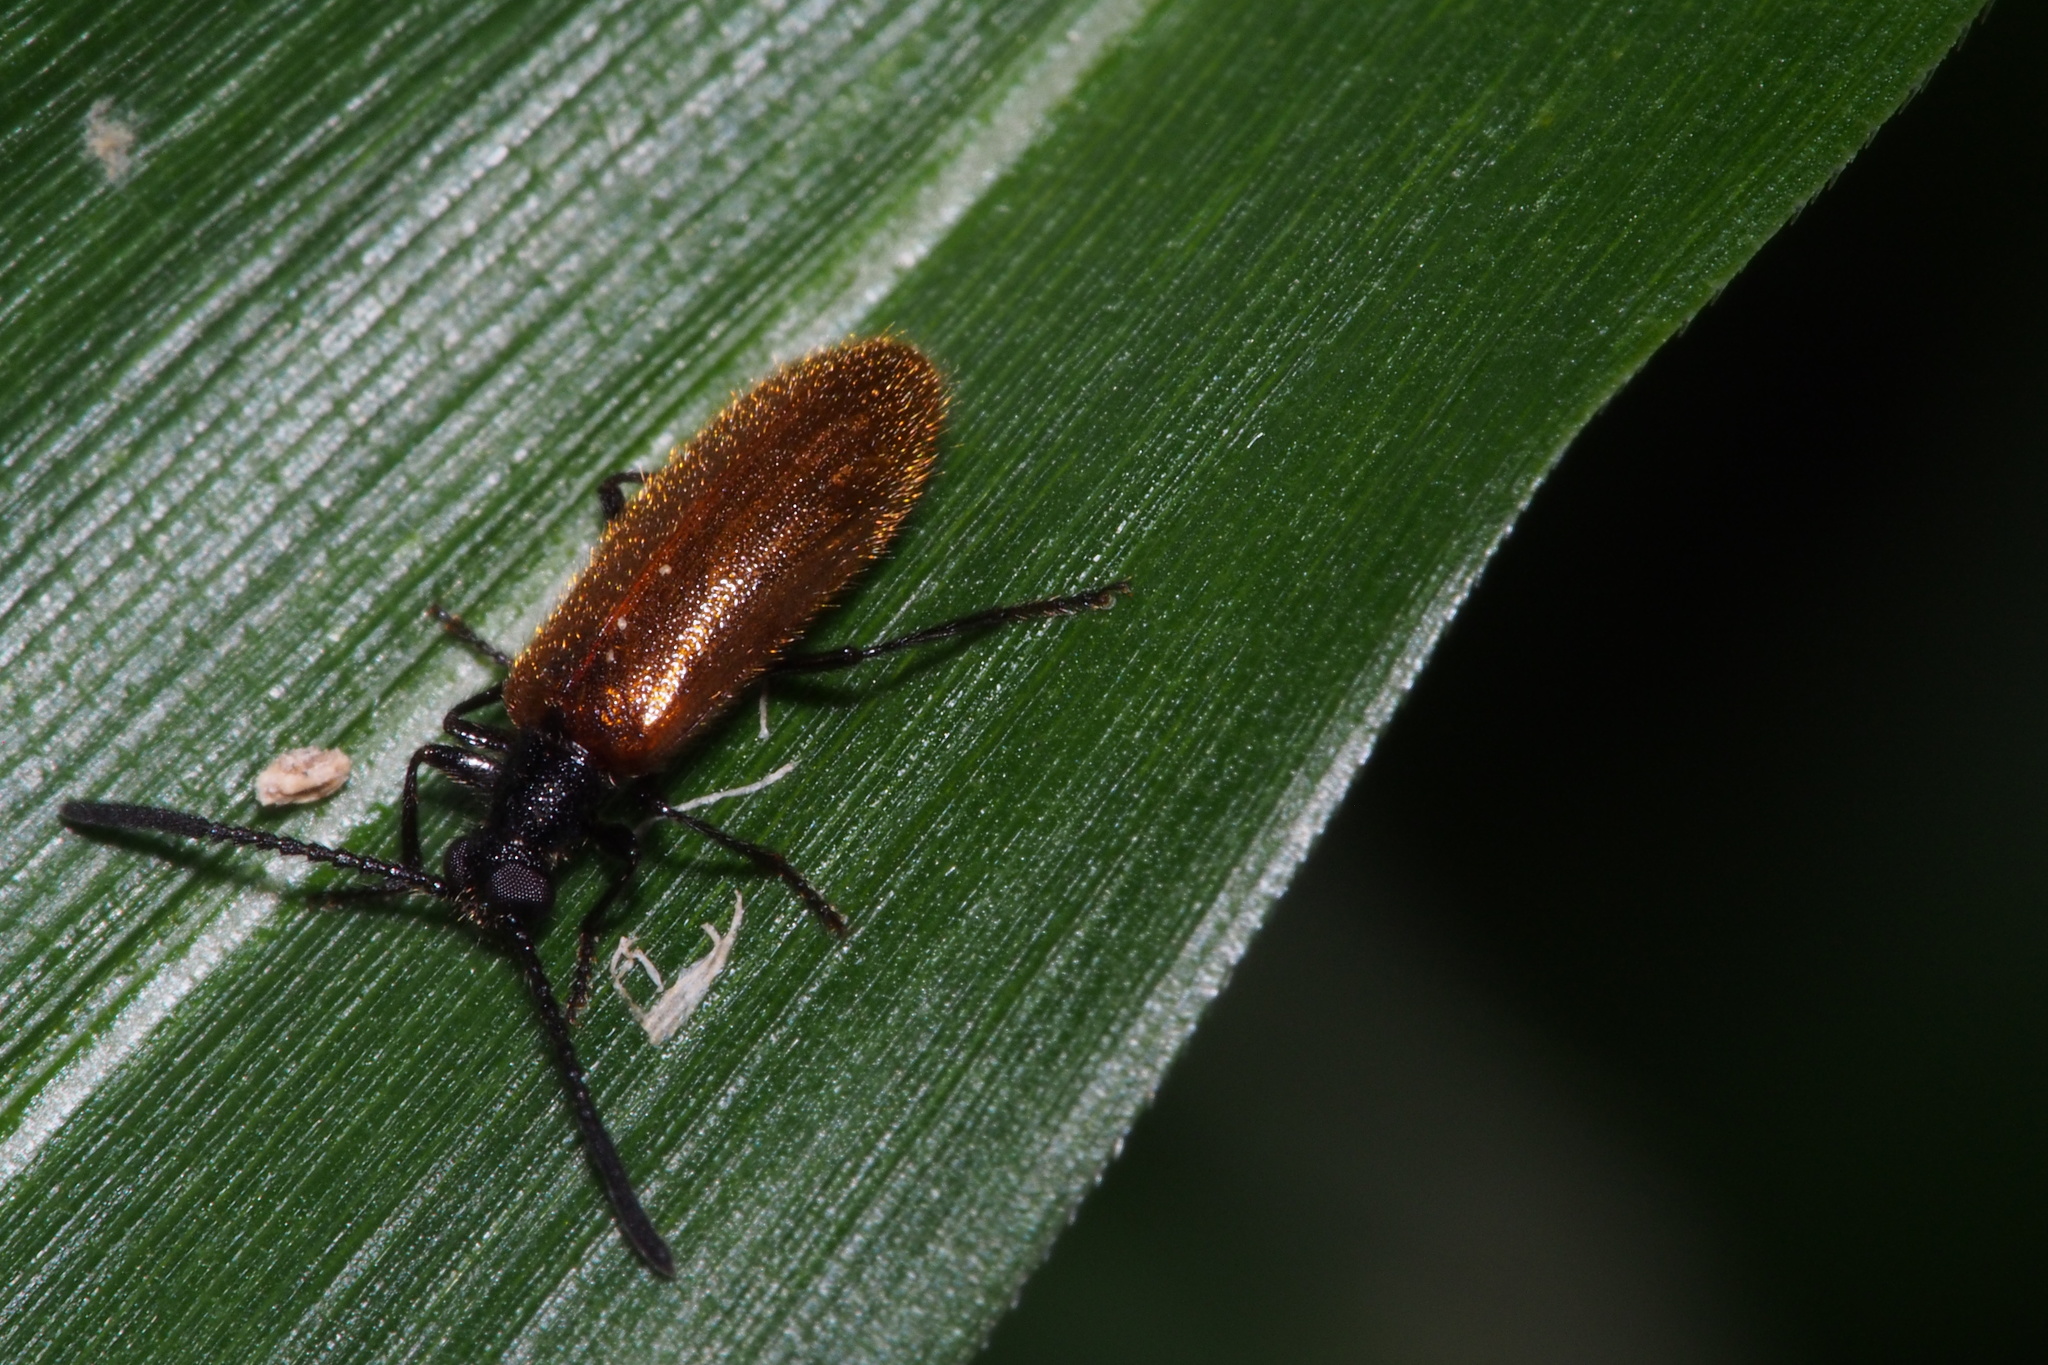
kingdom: Animalia
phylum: Arthropoda
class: Insecta
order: Coleoptera
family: Tenebrionidae
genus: Lagria
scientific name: Lagria
